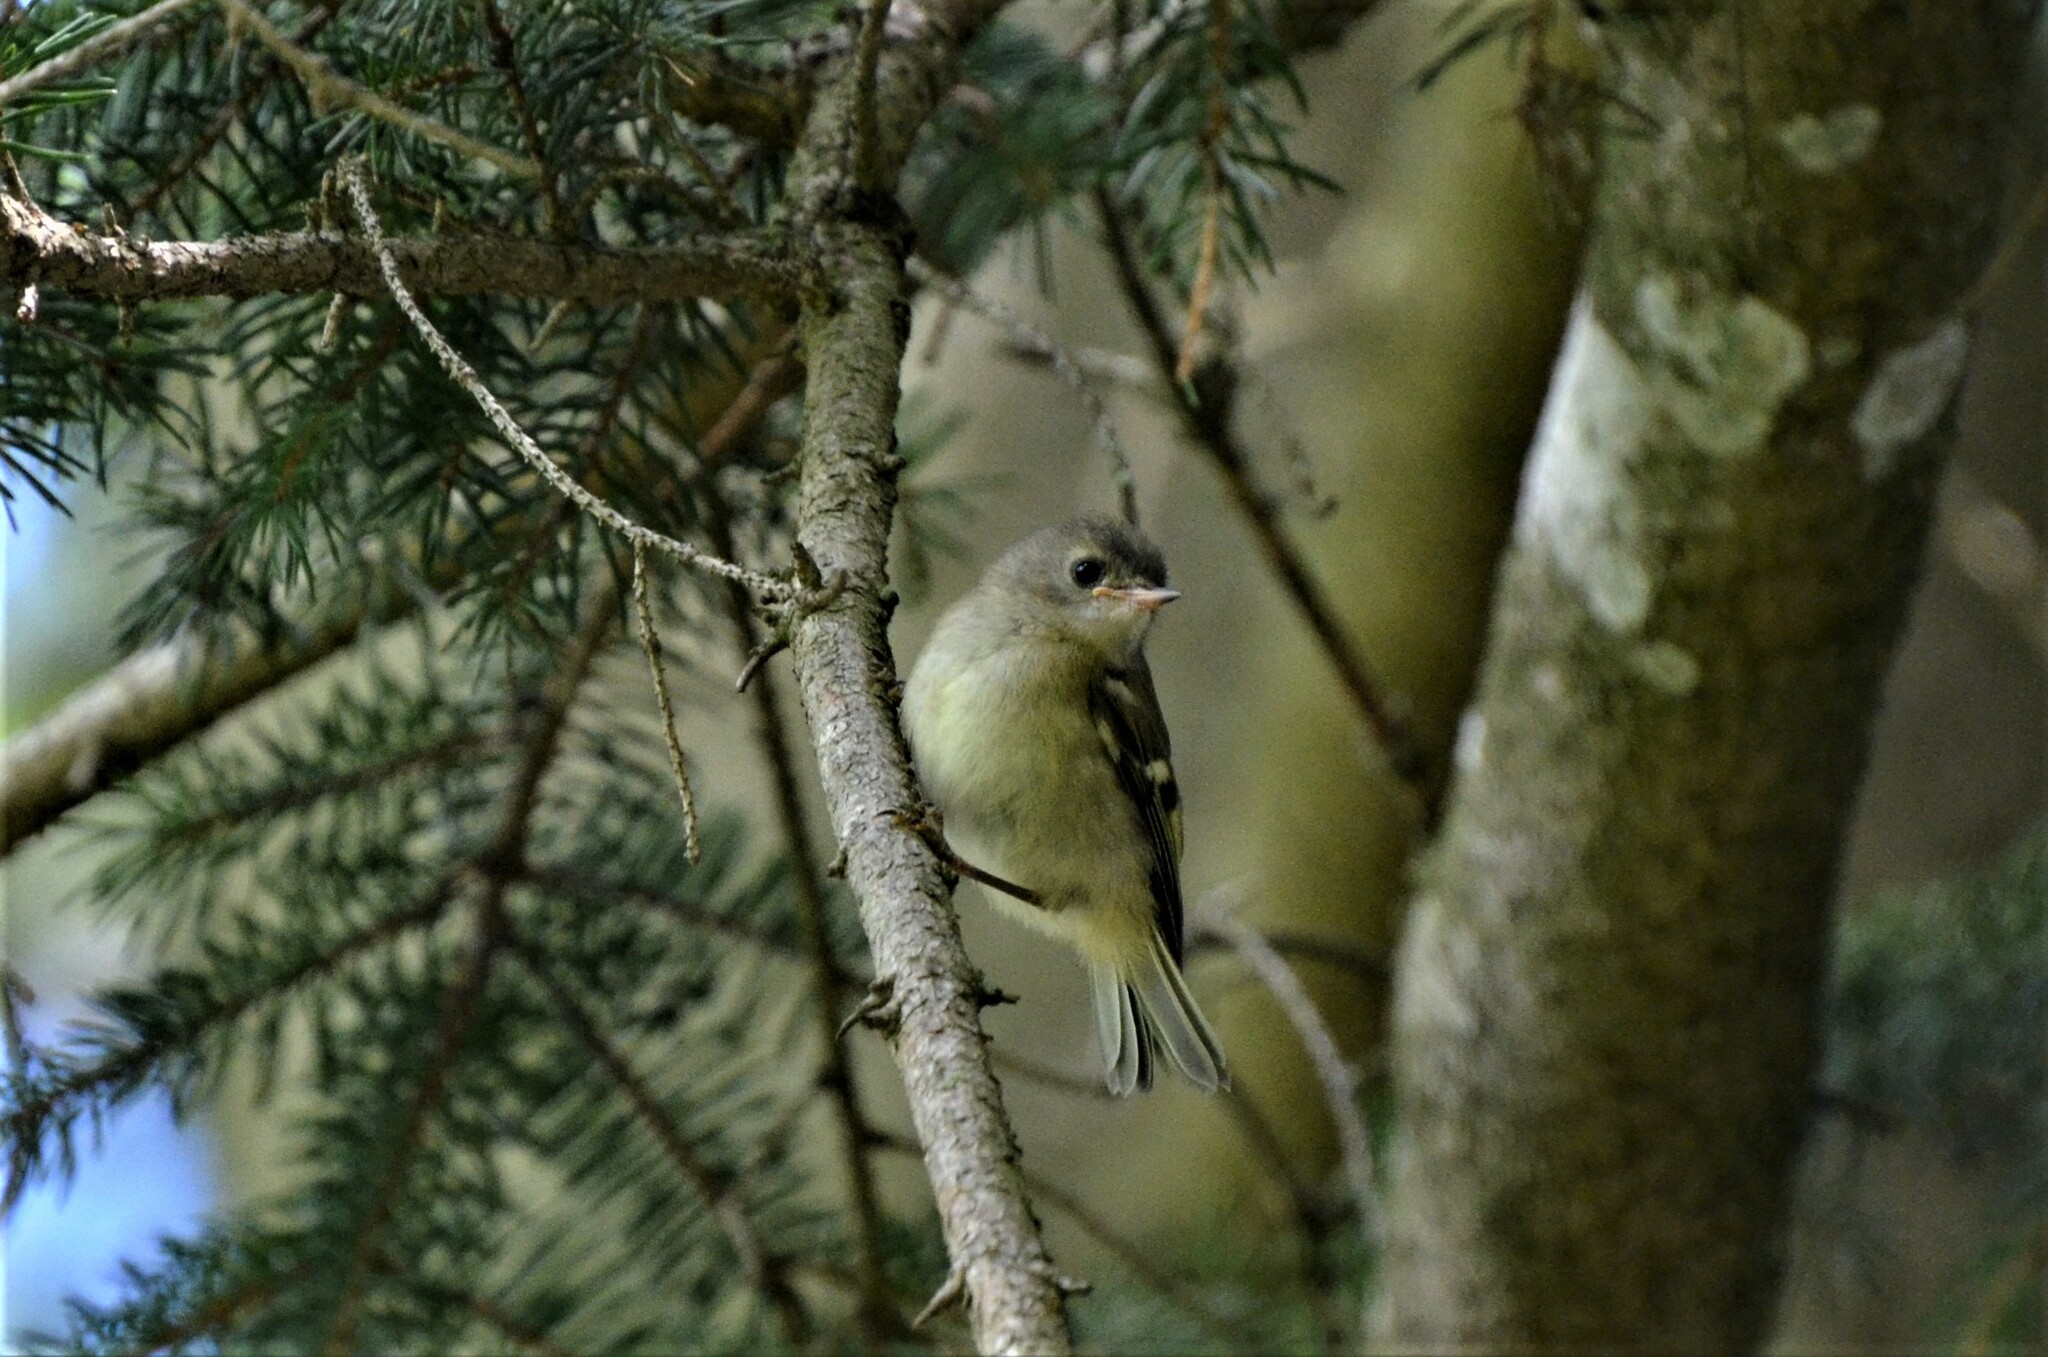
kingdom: Animalia
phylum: Chordata
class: Aves
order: Passeriformes
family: Regulidae
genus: Regulus
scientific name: Regulus regulus
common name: Goldcrest
